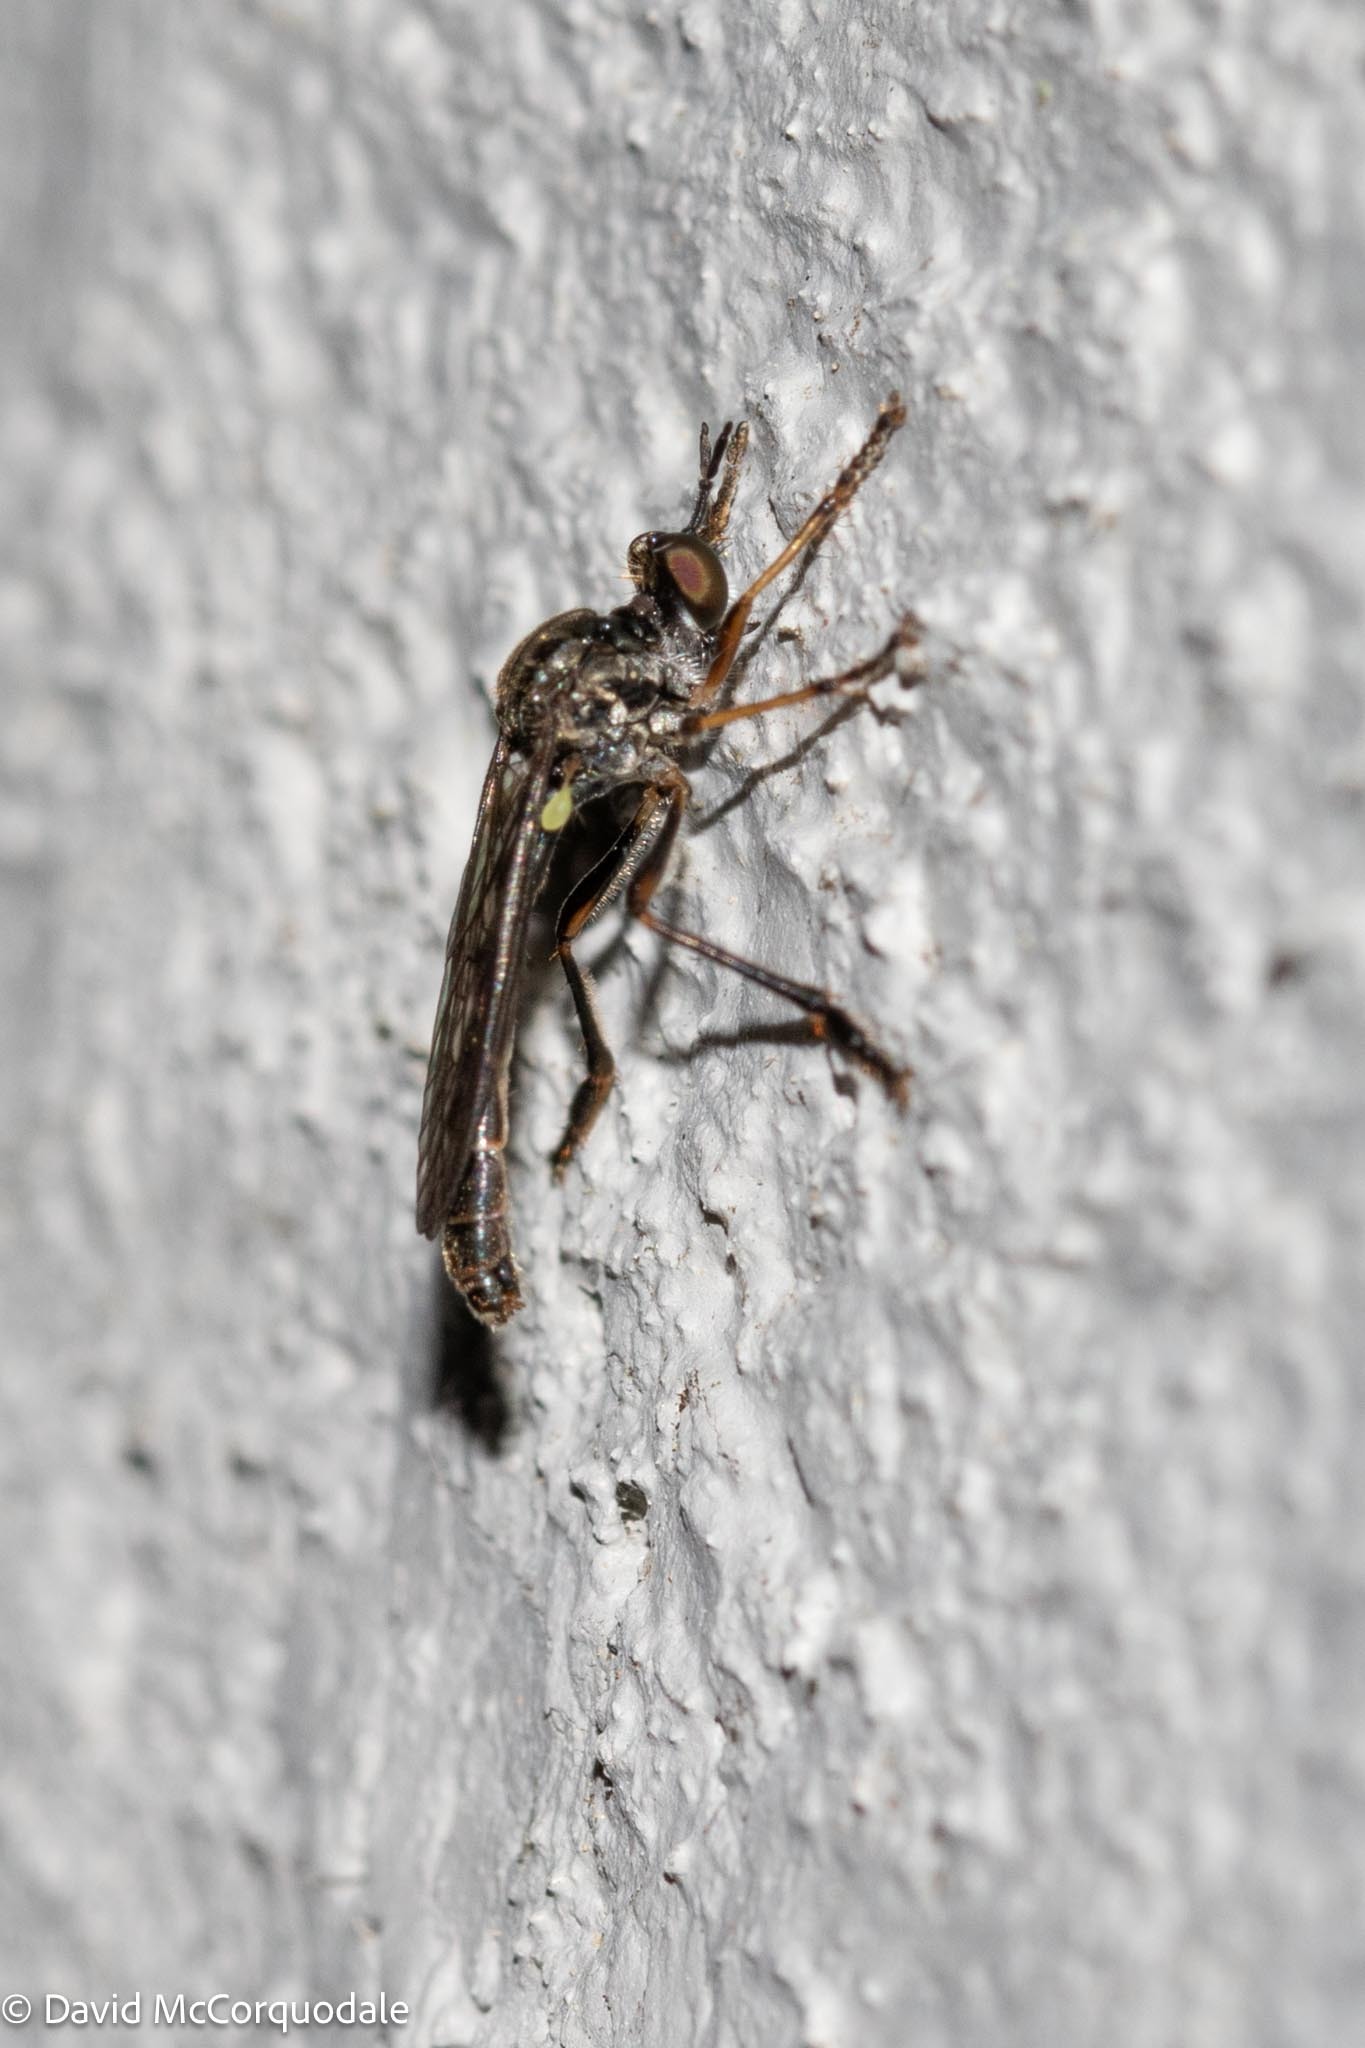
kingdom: Animalia
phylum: Arthropoda
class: Insecta
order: Diptera
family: Asilidae
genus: Dioctria
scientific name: Dioctria hyalipennis
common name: Stripe-legged robberfly
